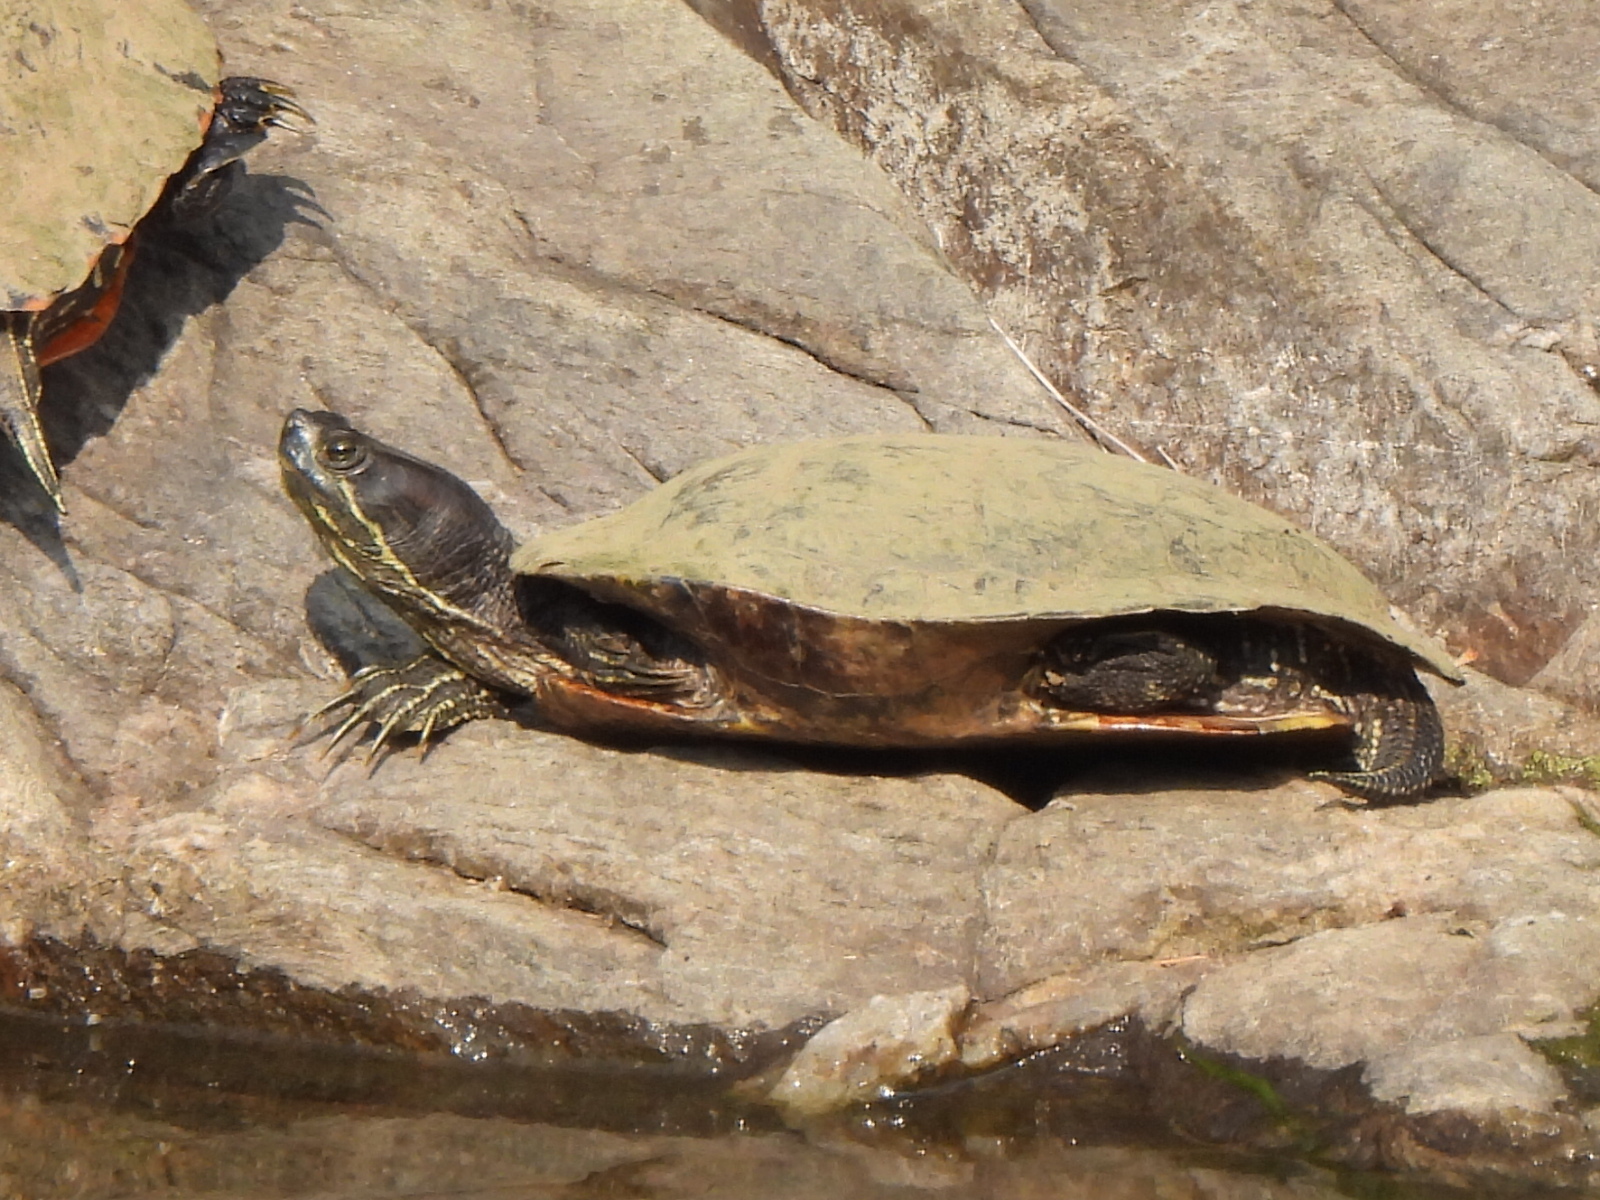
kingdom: Animalia
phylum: Chordata
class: Testudines
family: Emydidae
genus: Trachemys
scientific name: Trachemys scripta
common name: Slider
